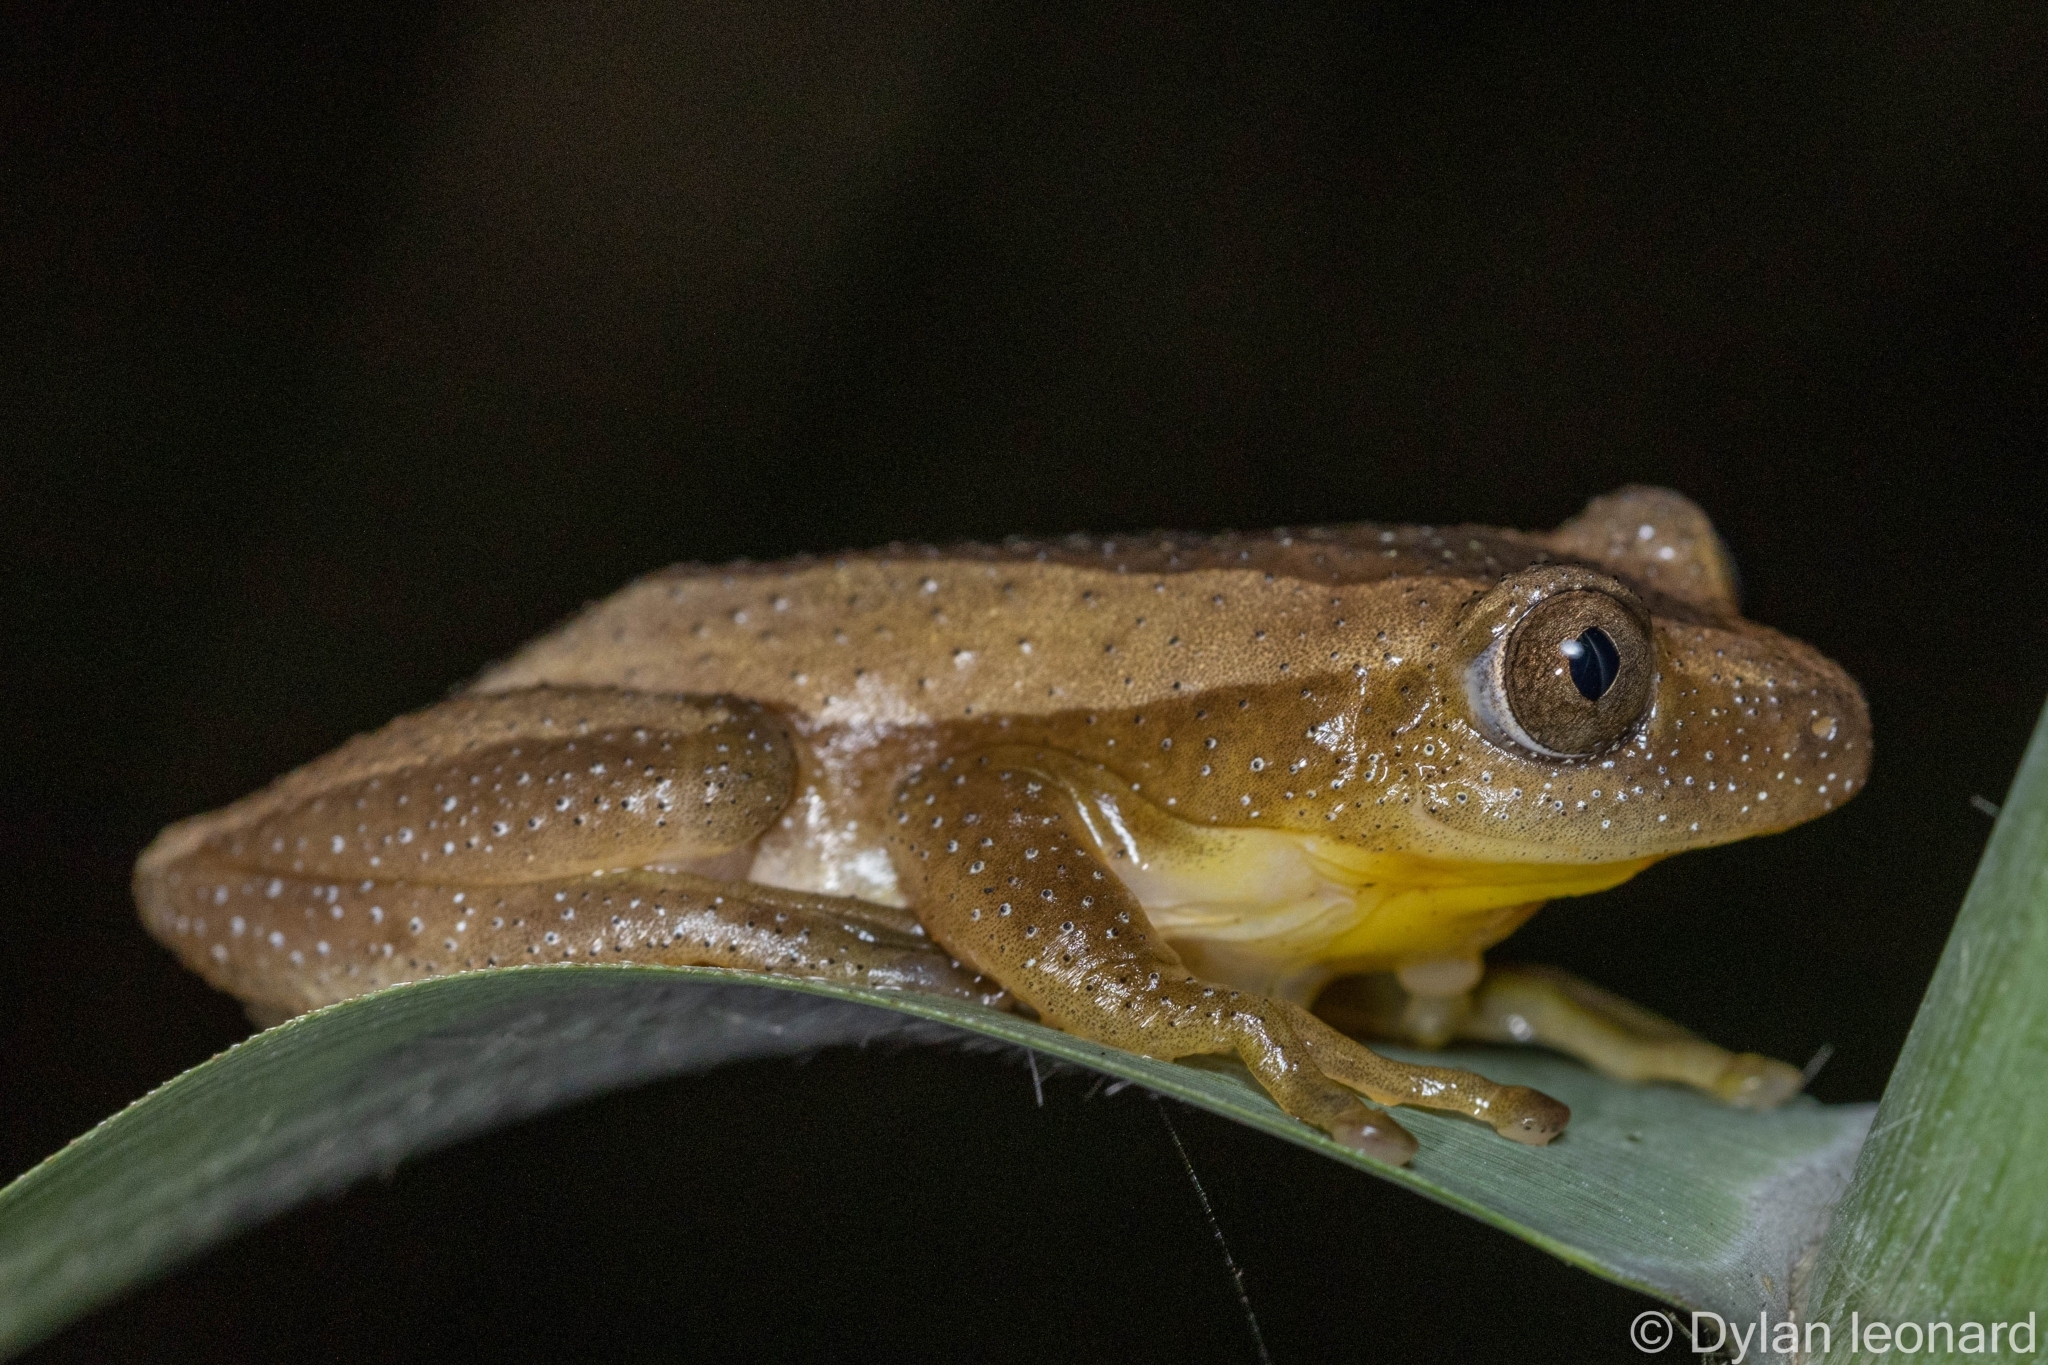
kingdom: Animalia
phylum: Chordata
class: Amphibia
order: Anura
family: Hyperoliidae
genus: Afrixalus
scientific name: Afrixalus fornasini
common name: Fornasini's spiny reed frog
